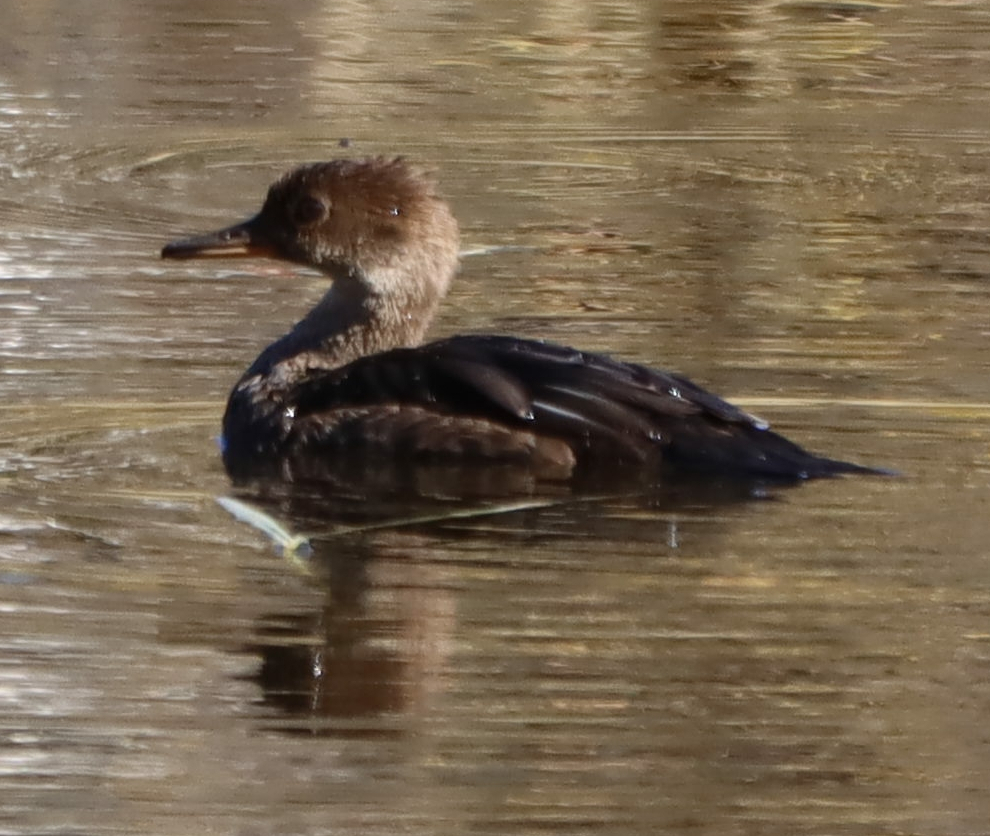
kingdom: Animalia
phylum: Chordata
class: Aves
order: Anseriformes
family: Anatidae
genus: Lophodytes
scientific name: Lophodytes cucullatus
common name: Hooded merganser
